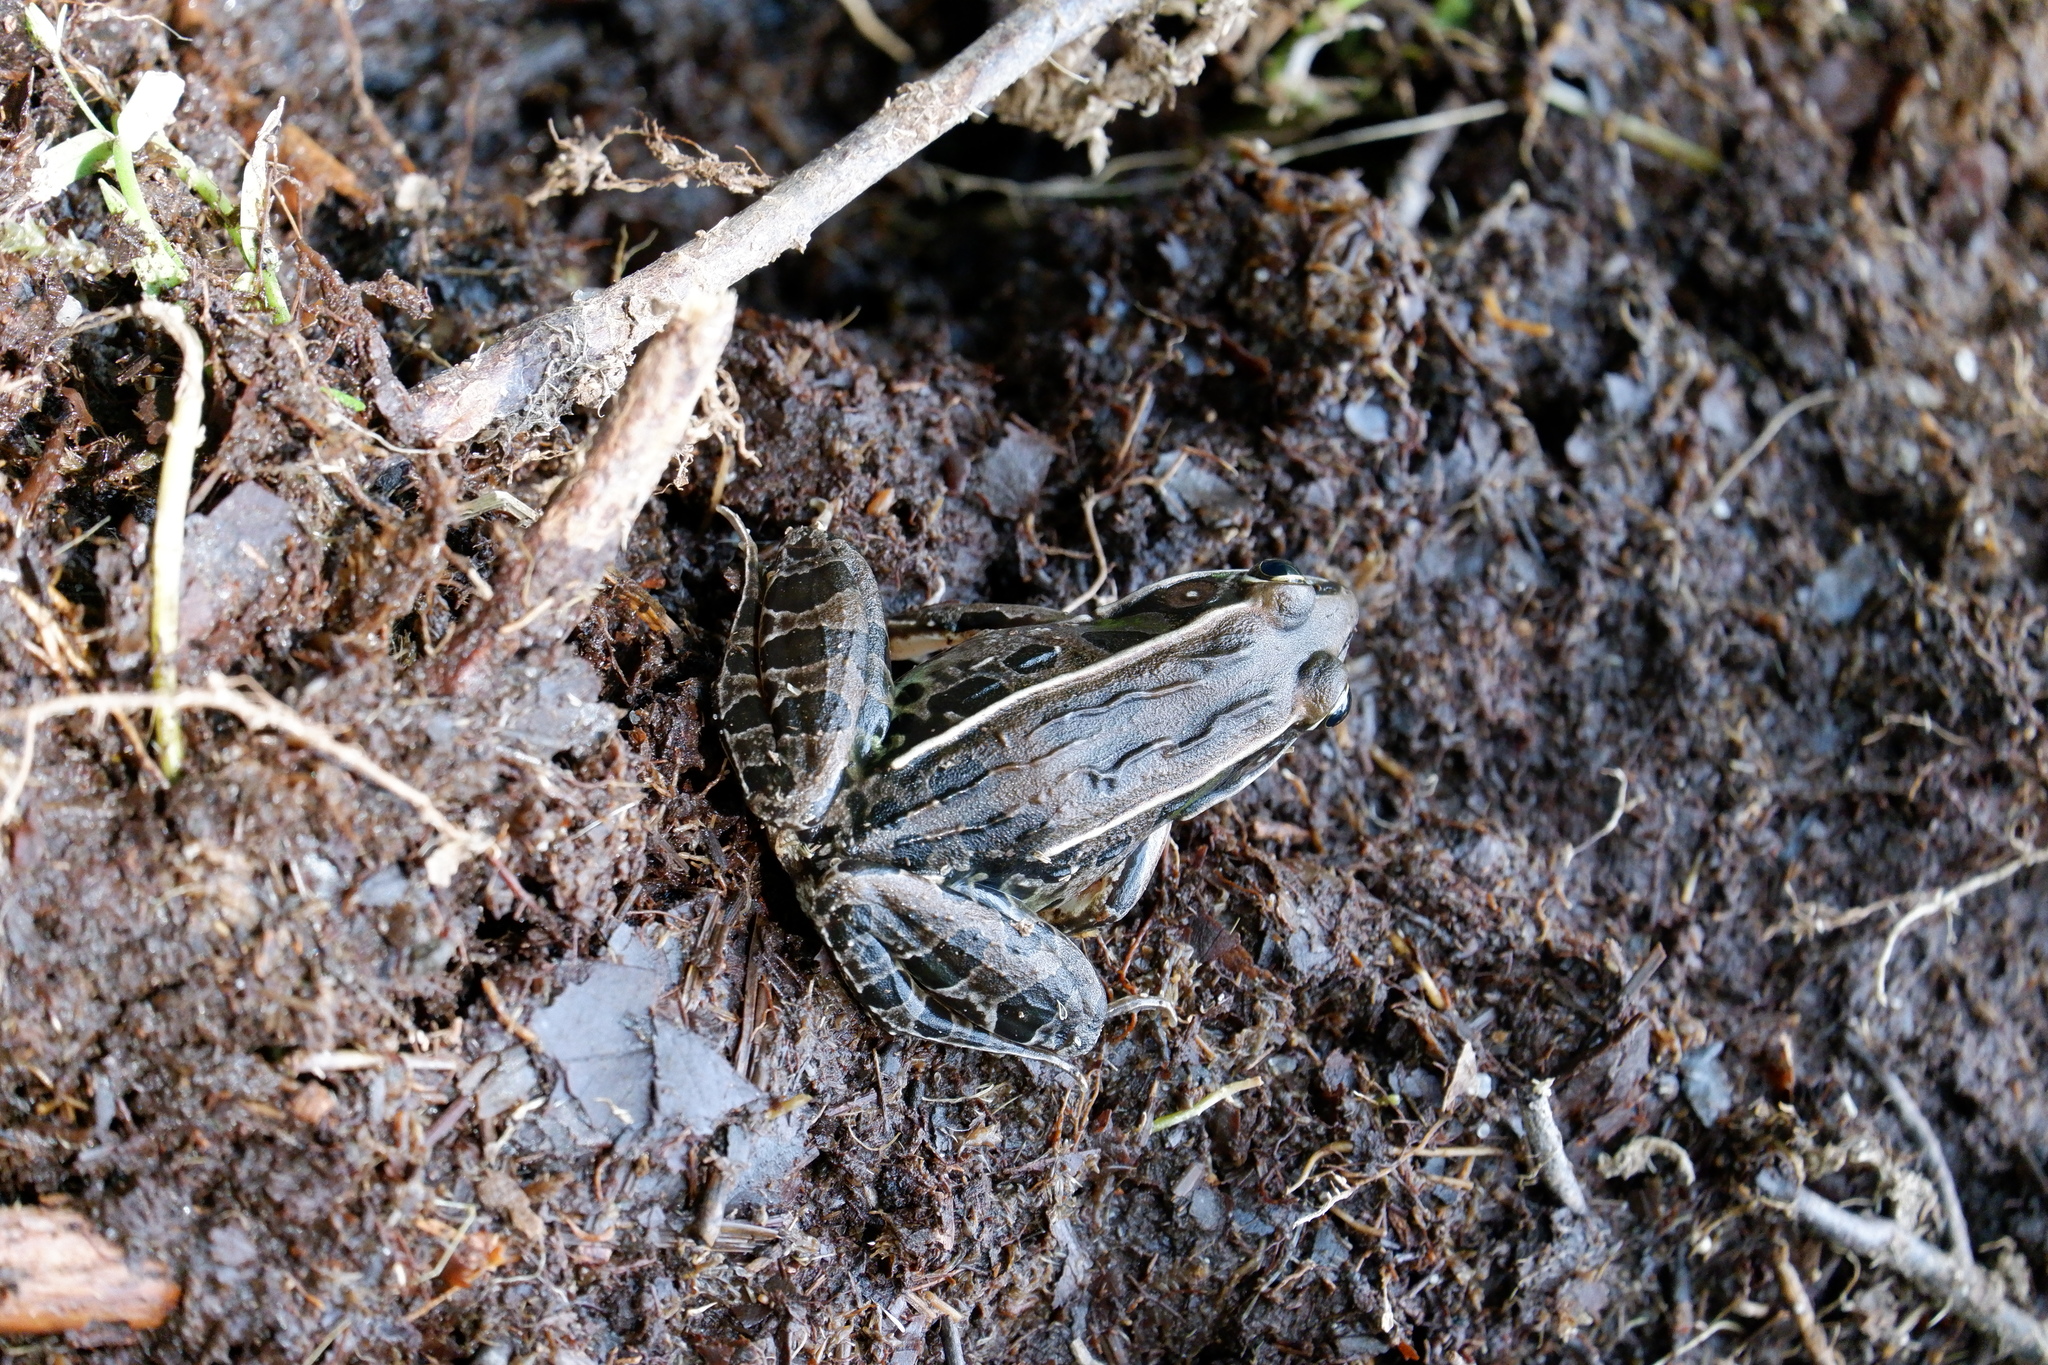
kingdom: Animalia
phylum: Chordata
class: Amphibia
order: Anura
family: Ranidae
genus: Lithobates
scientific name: Lithobates sphenocephalus
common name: Southern leopard frog
